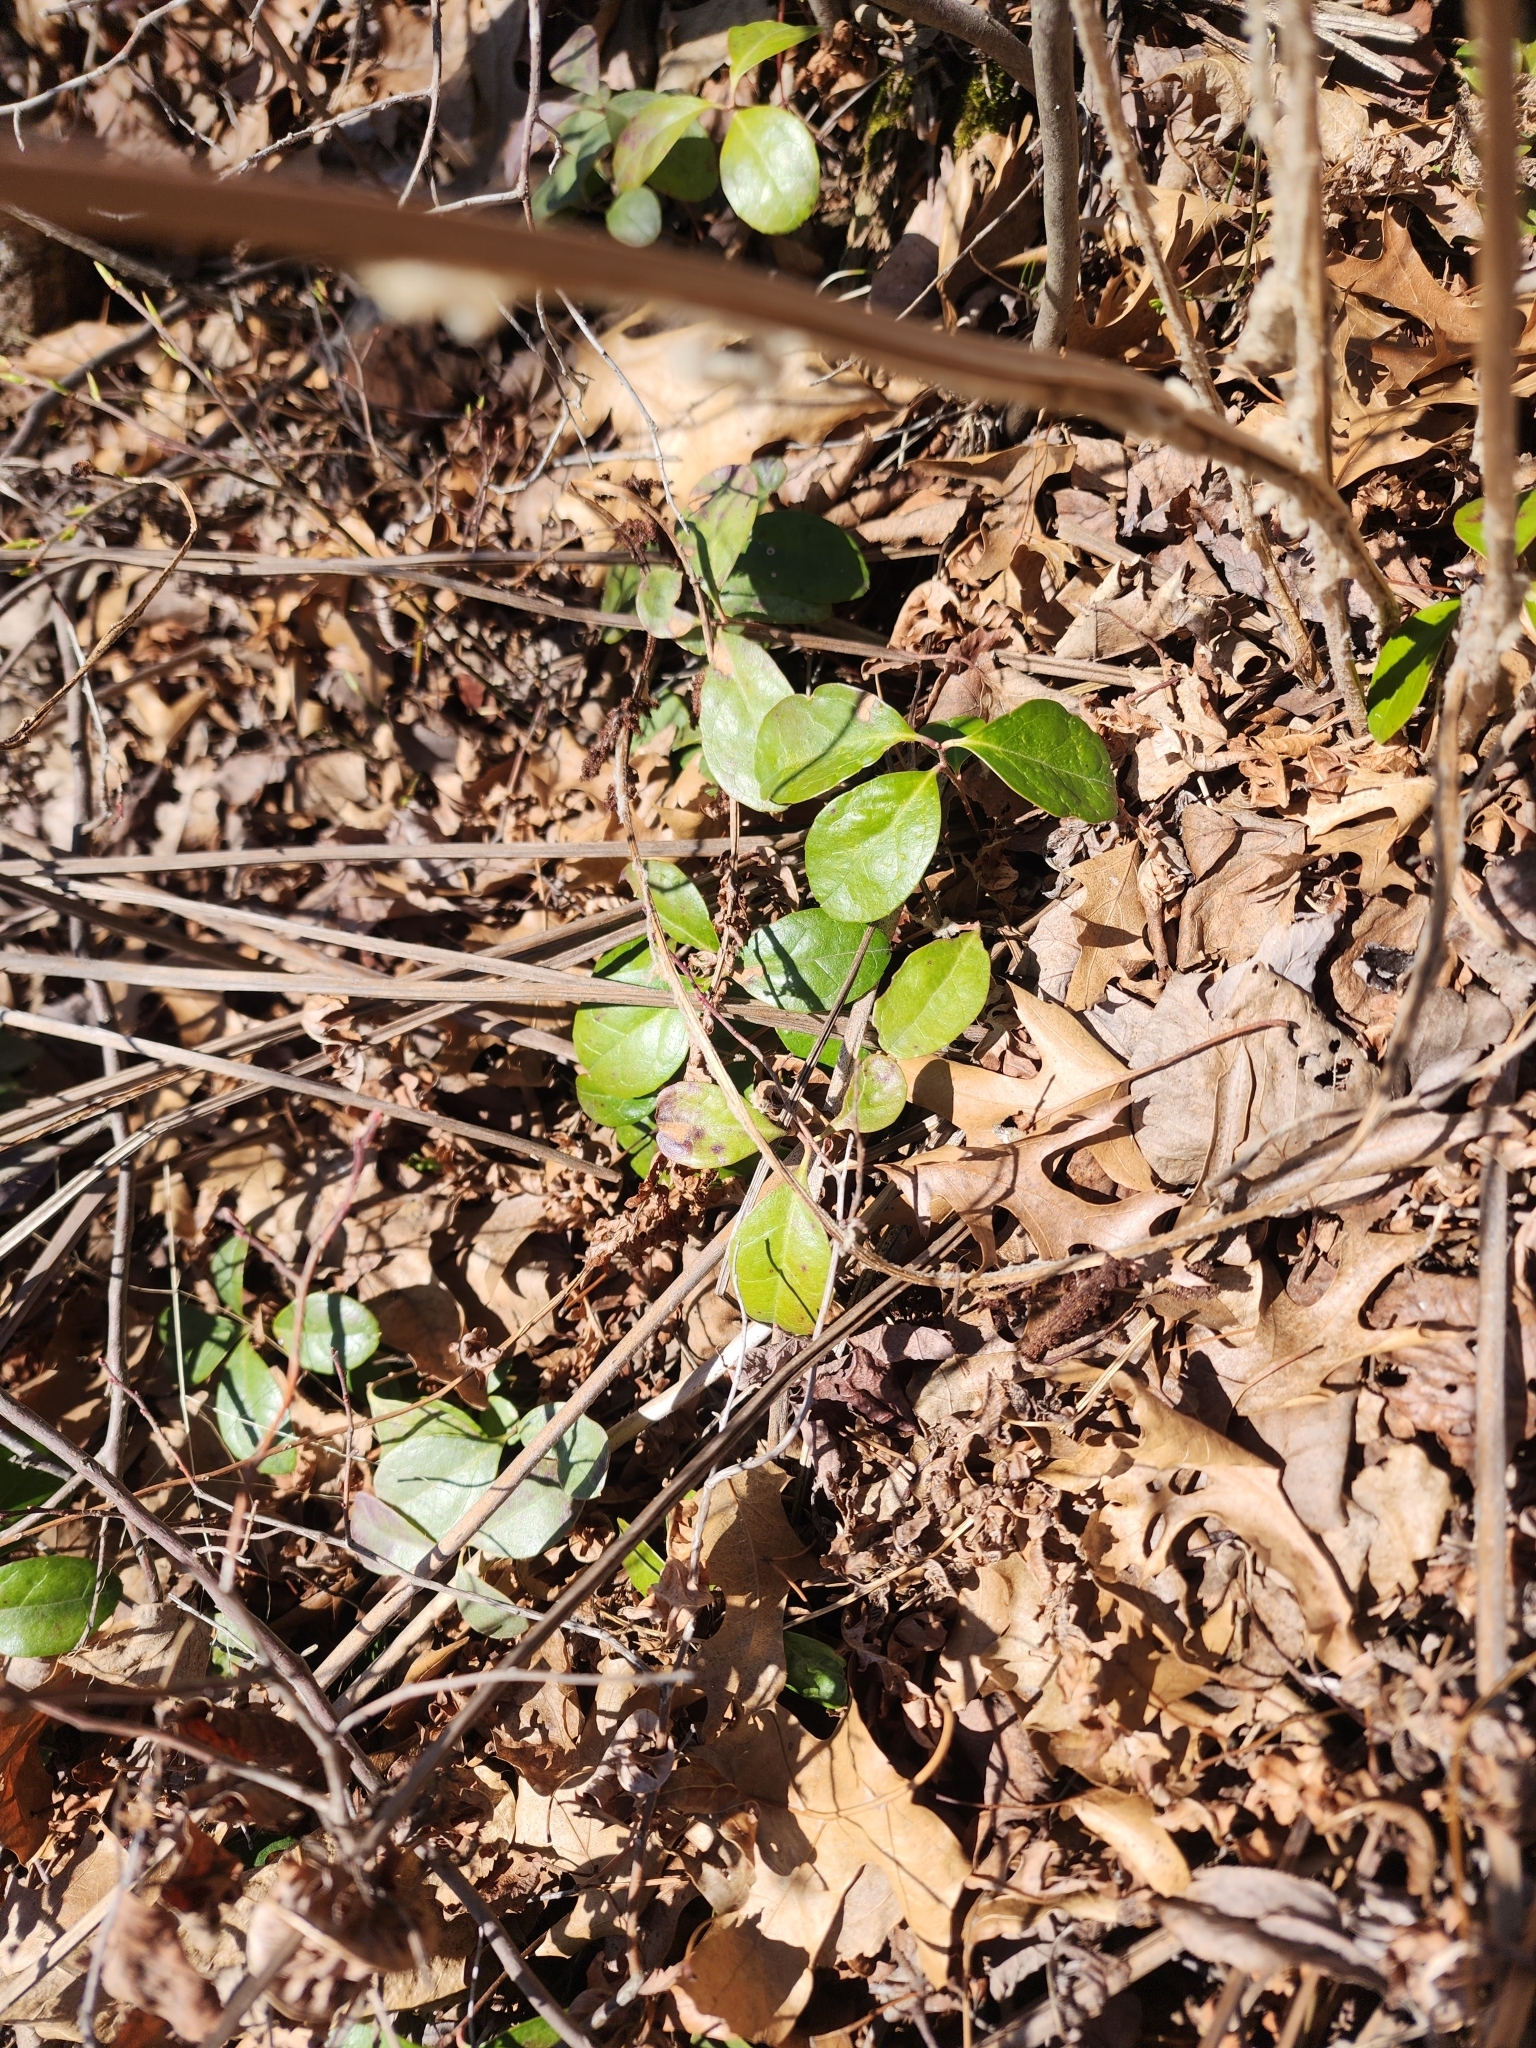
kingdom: Plantae
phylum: Tracheophyta
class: Magnoliopsida
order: Ericales
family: Ericaceae
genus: Gaultheria
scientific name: Gaultheria procumbens
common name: Checkerberry
